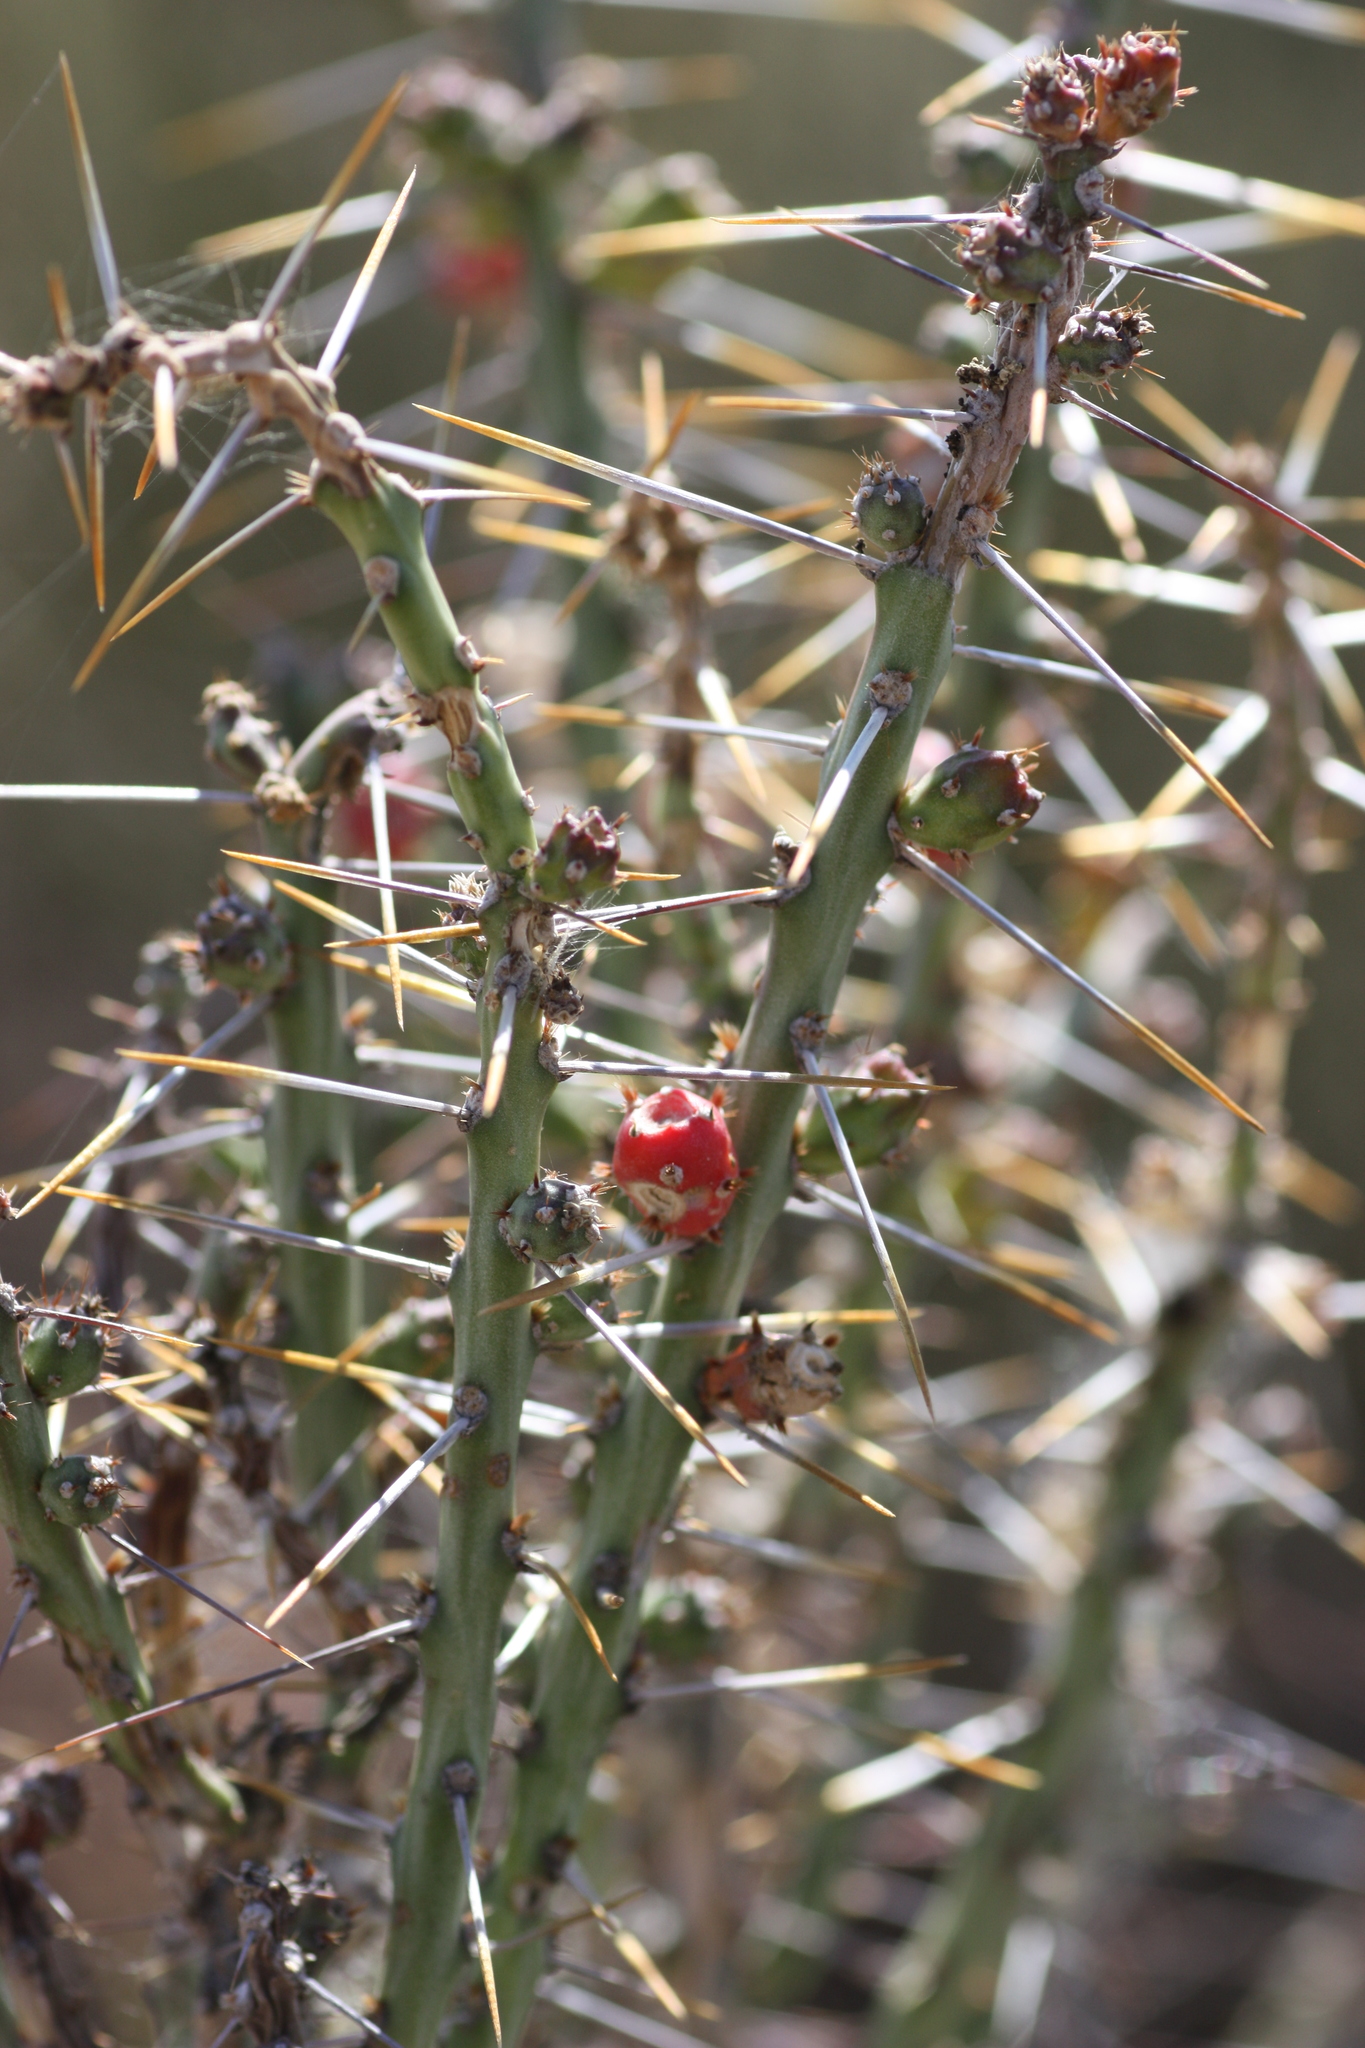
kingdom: Plantae
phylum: Tracheophyta
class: Magnoliopsida
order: Caryophyllales
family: Cactaceae
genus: Cylindropuntia
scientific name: Cylindropuntia leptocaulis
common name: Christmas cactus
